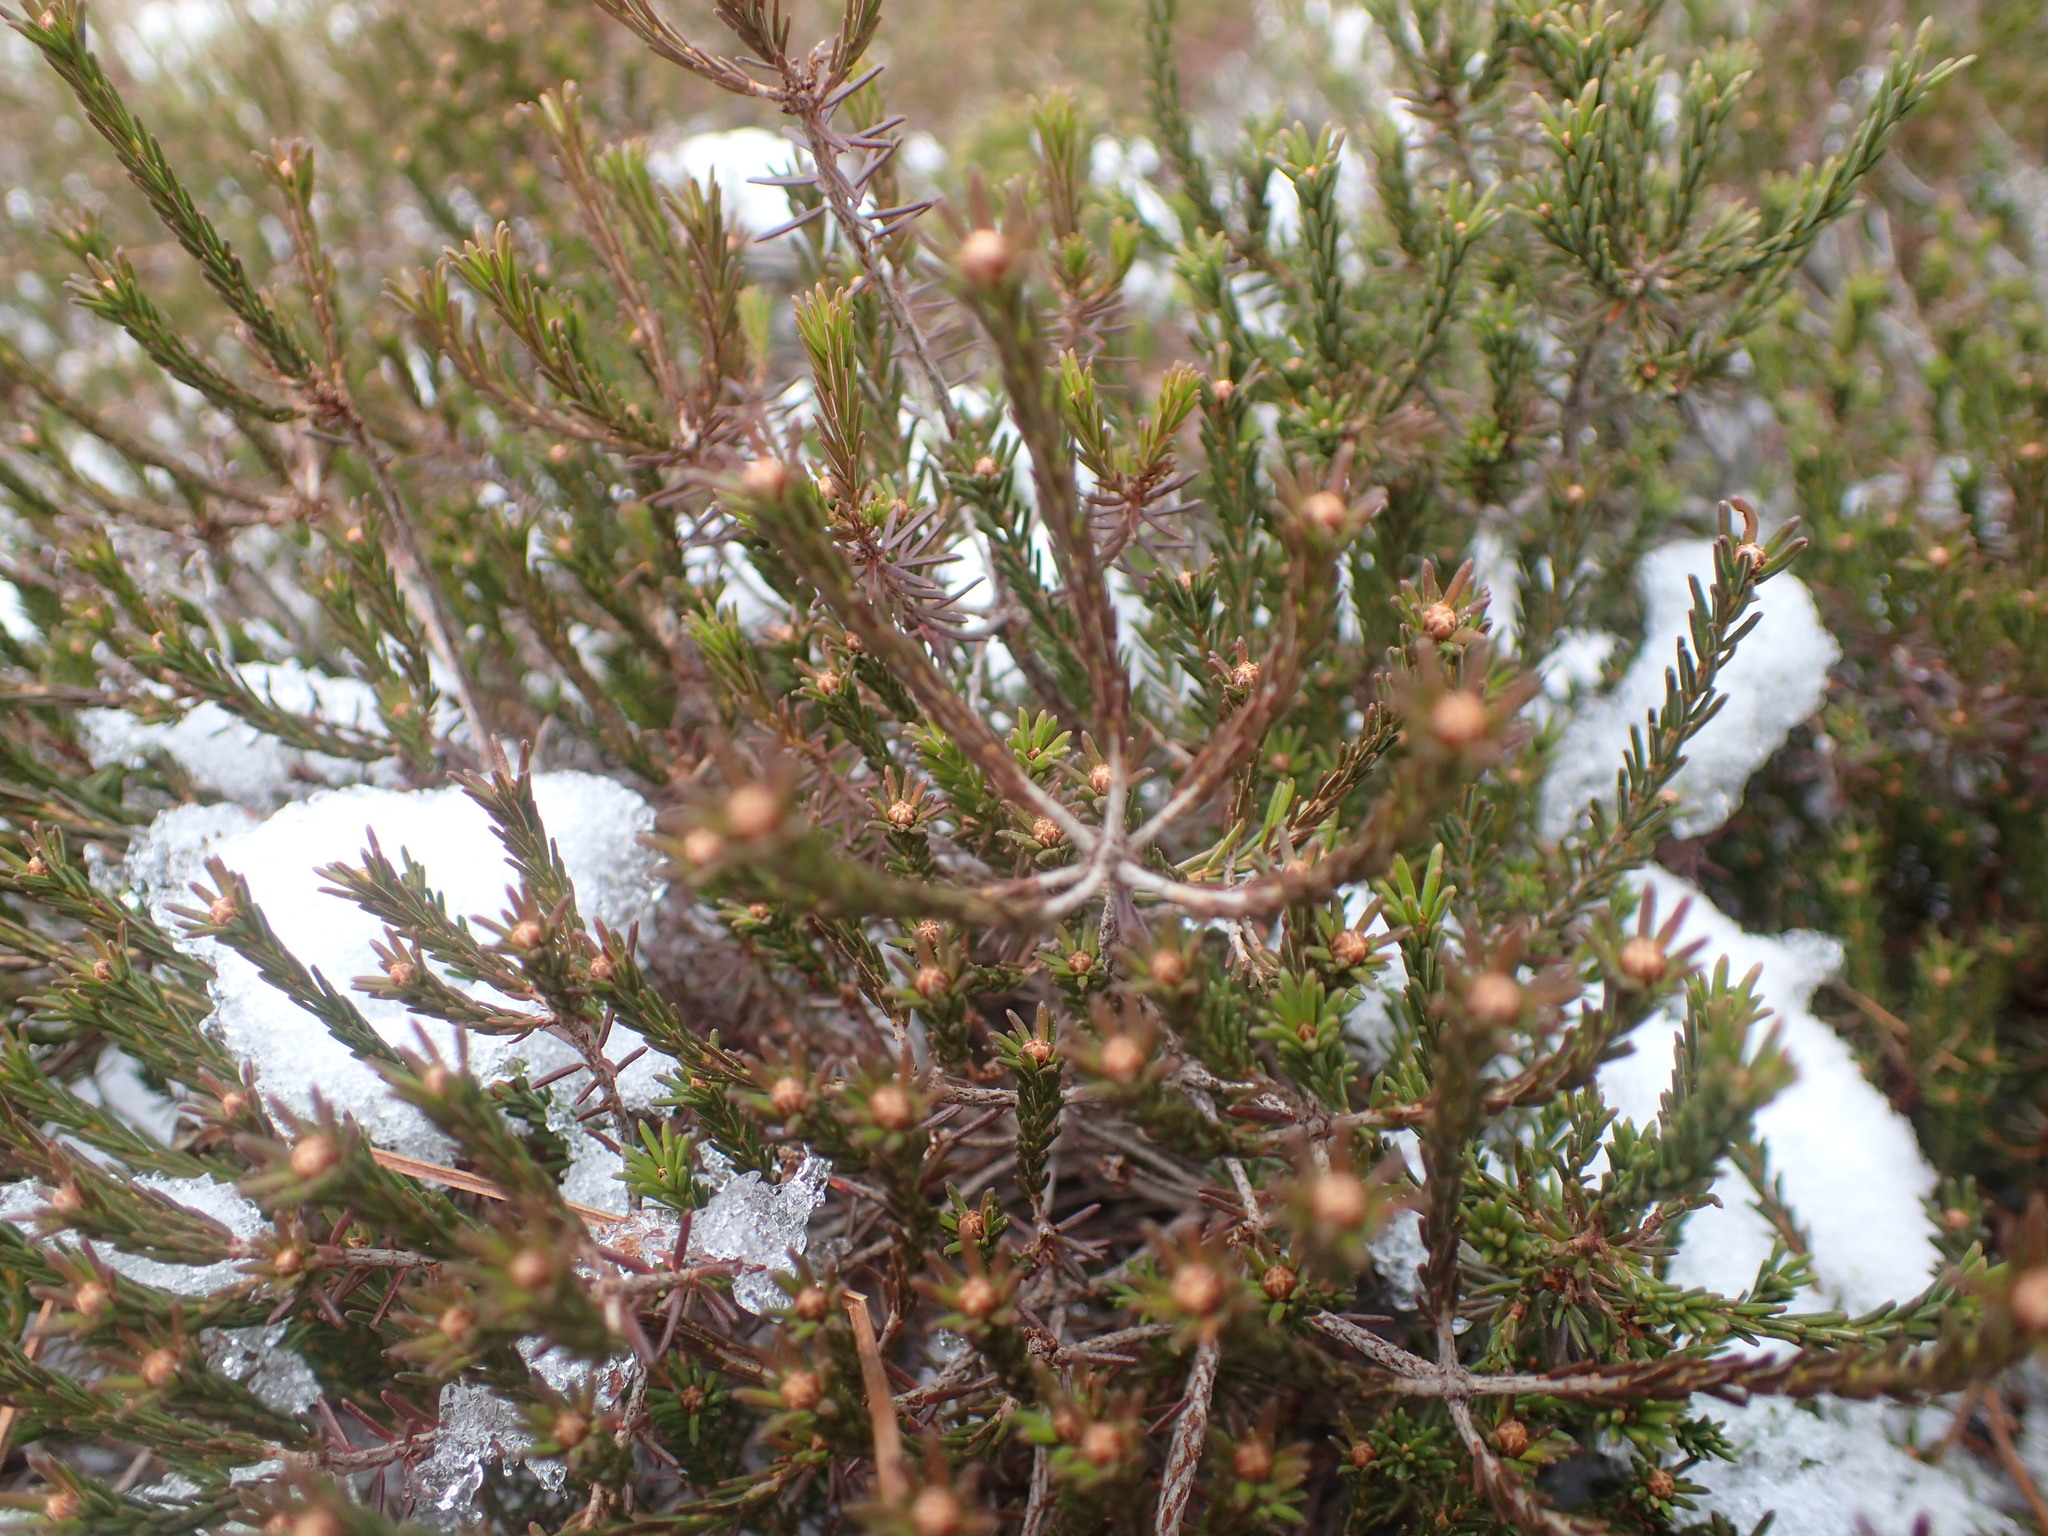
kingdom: Plantae
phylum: Tracheophyta
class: Magnoliopsida
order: Ericales
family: Ericaceae
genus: Corema
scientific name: Corema conradii
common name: Broom-crowberry
